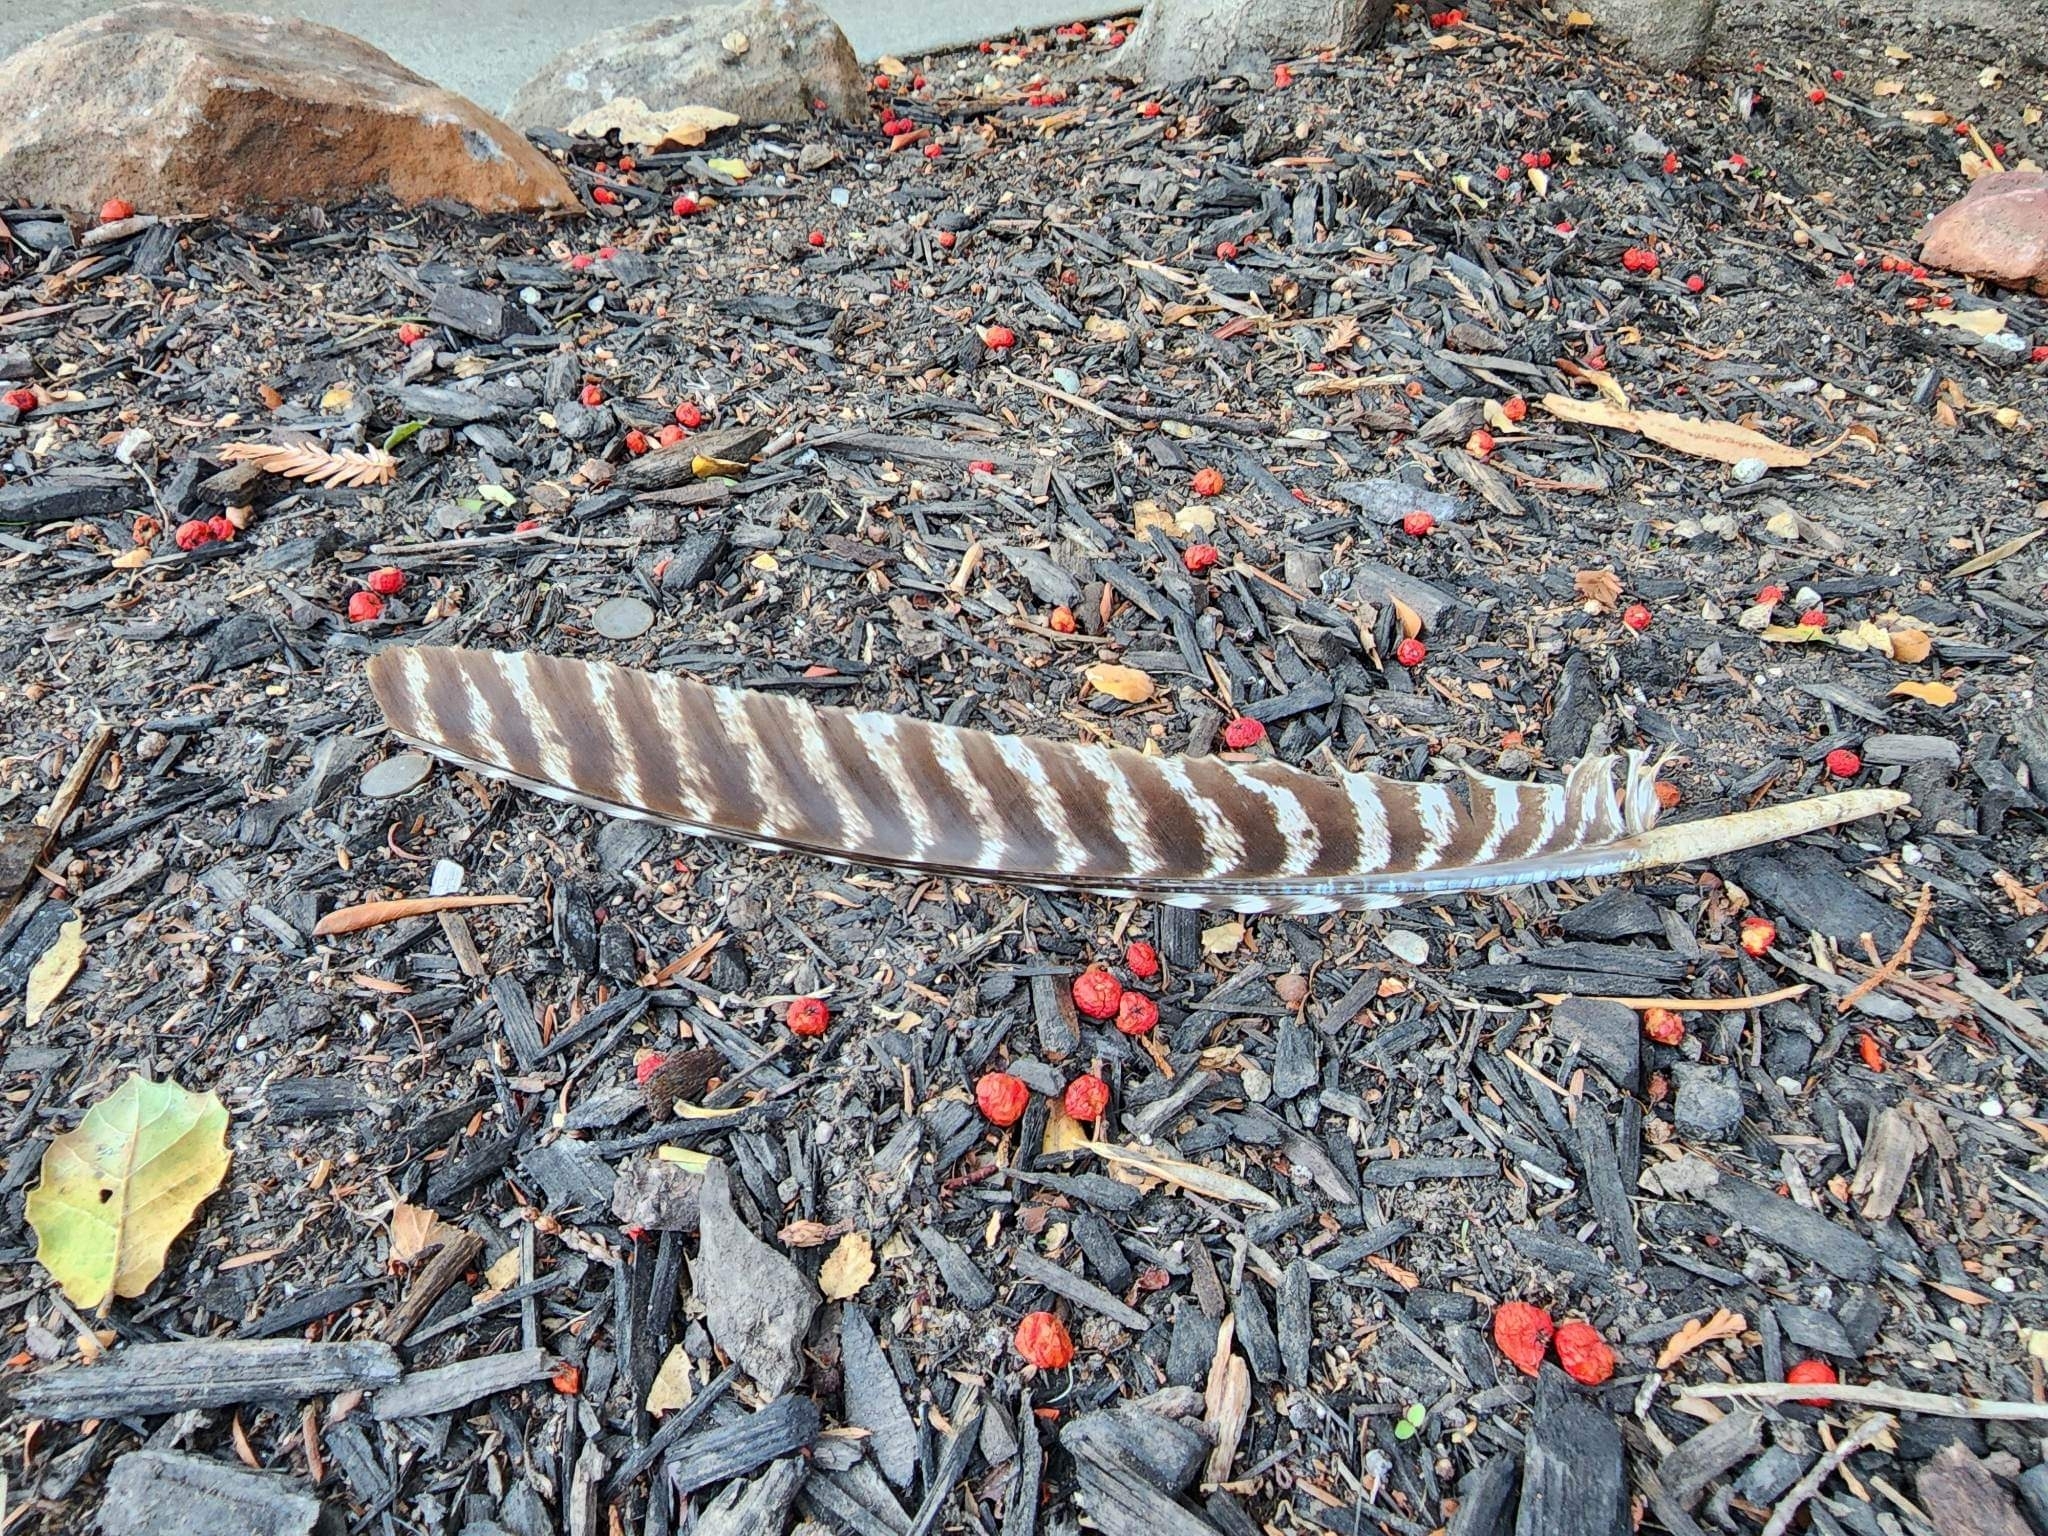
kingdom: Animalia
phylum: Chordata
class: Aves
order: Galliformes
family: Phasianidae
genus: Meleagris
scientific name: Meleagris gallopavo
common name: Wild turkey
